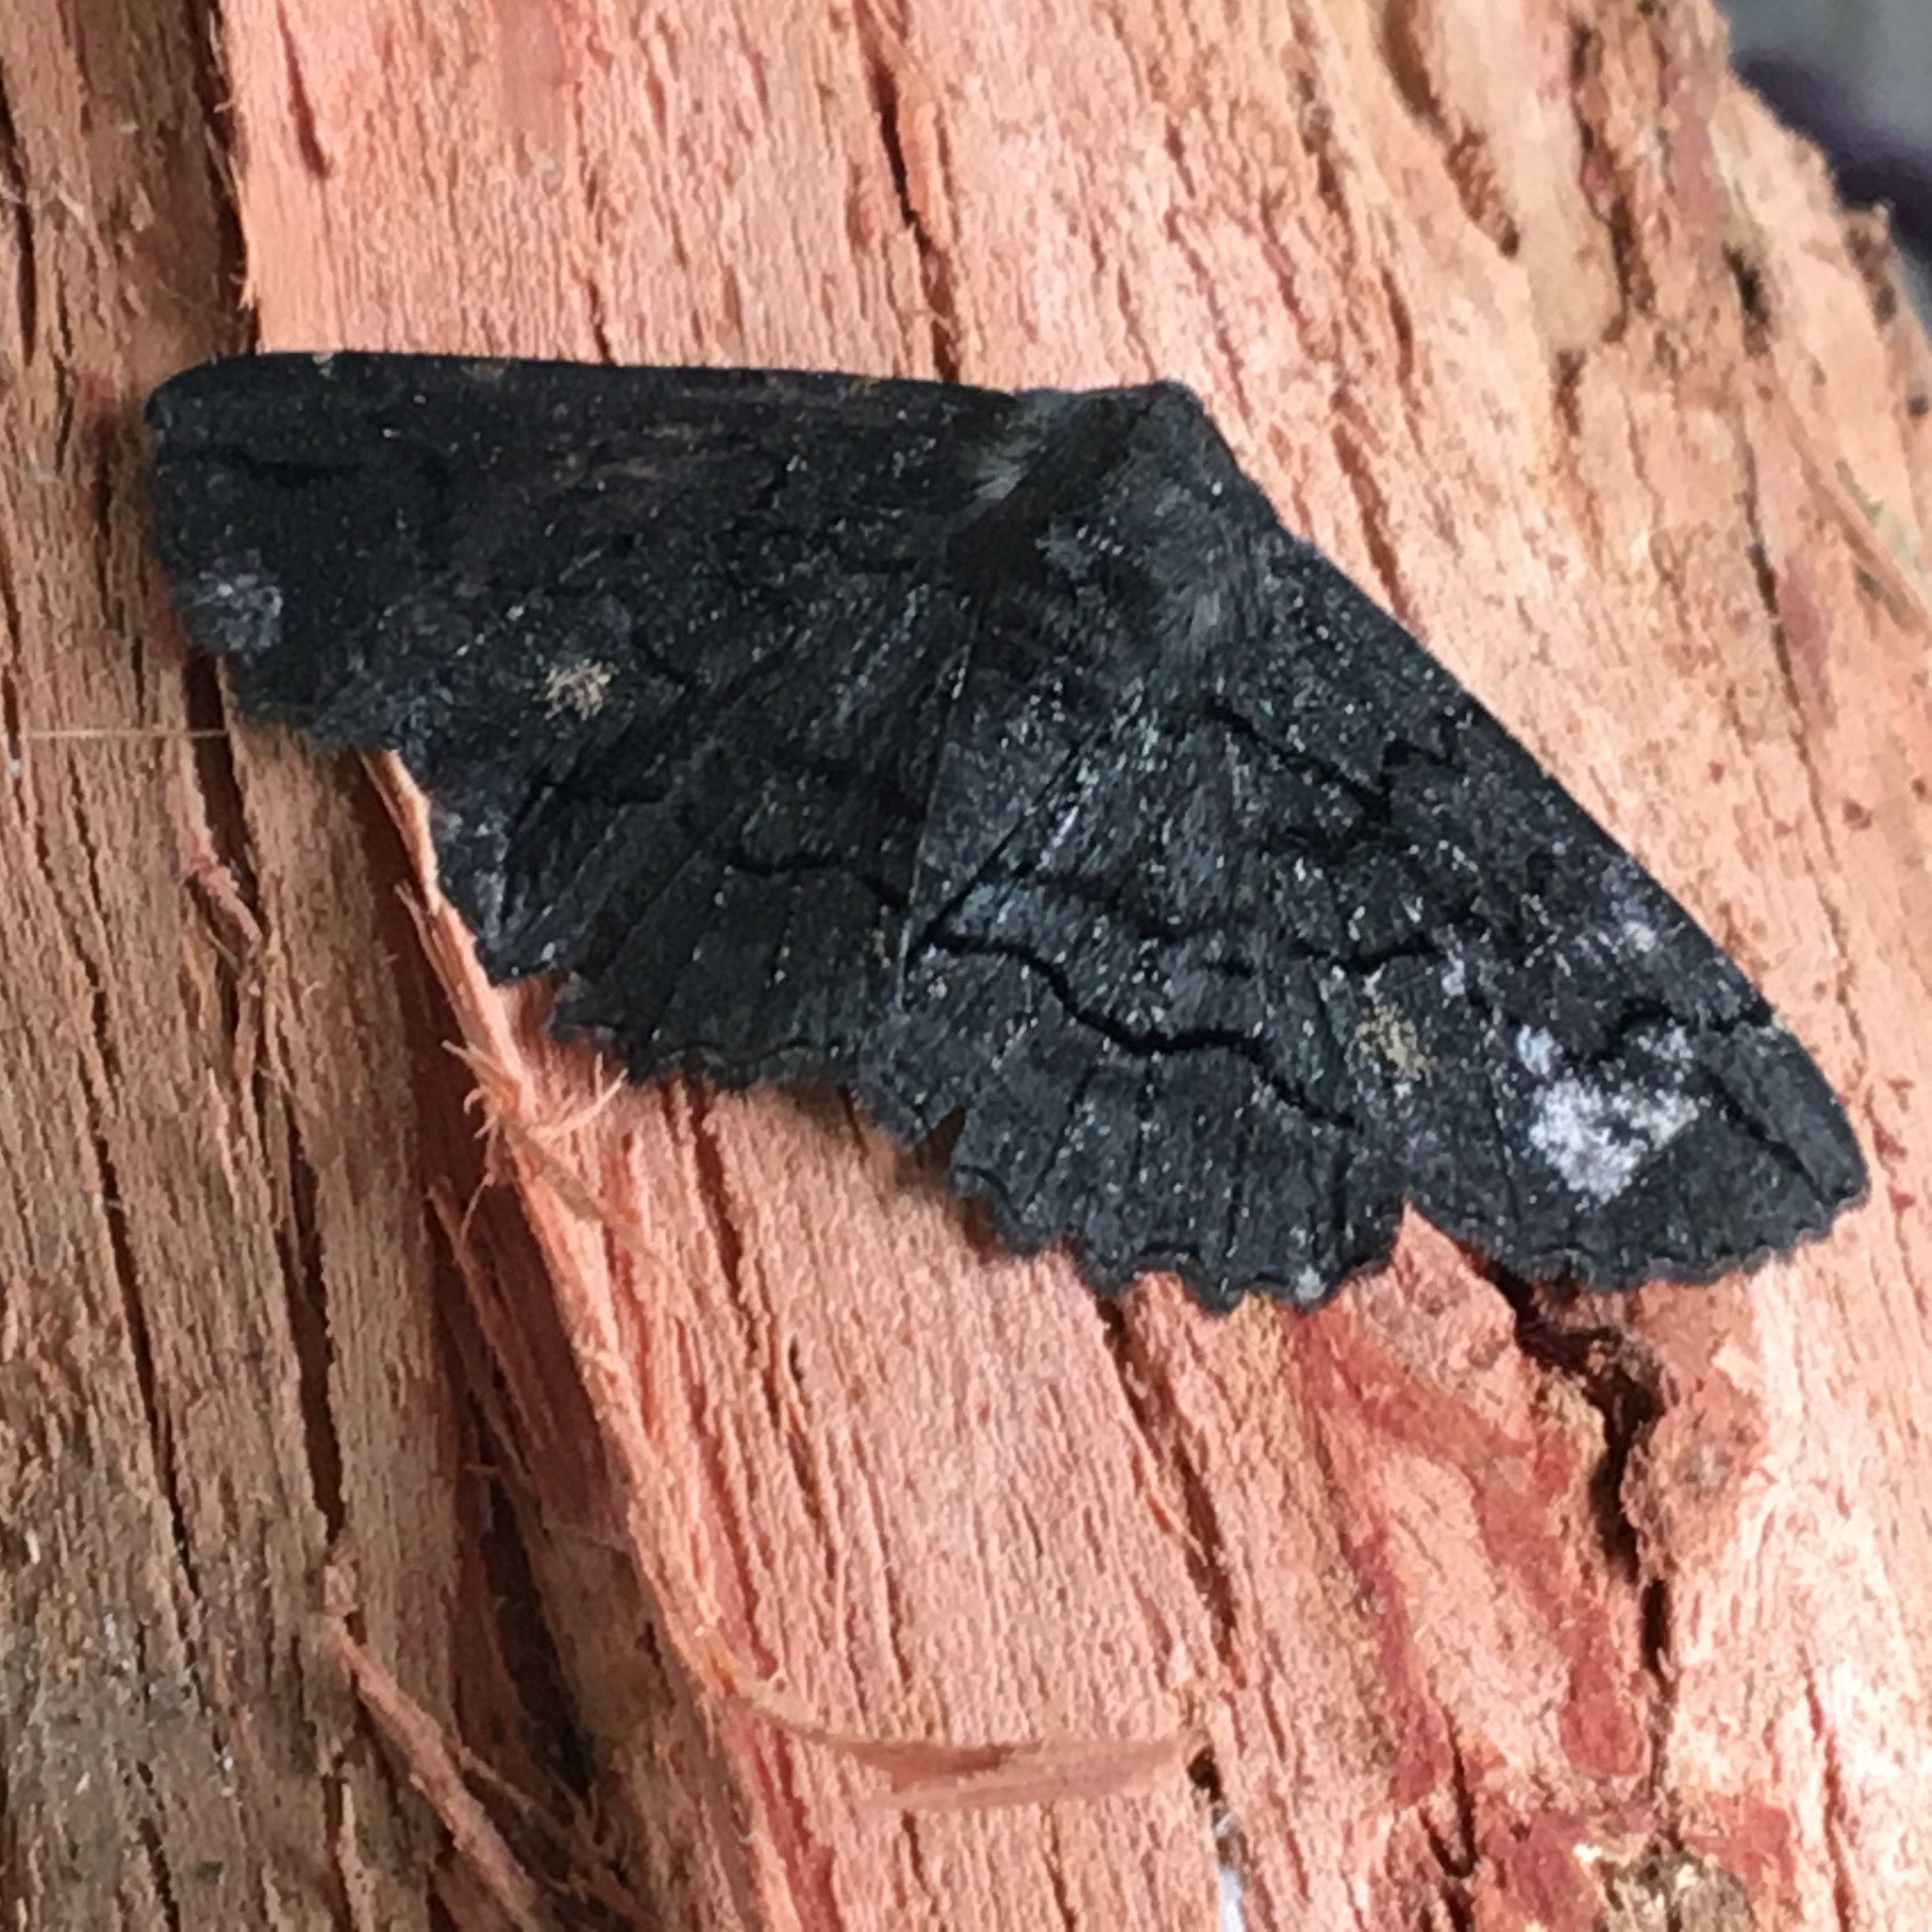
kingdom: Animalia
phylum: Arthropoda
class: Insecta
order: Lepidoptera
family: Geometridae
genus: Melanodes
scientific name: Melanodes anthracitaria
